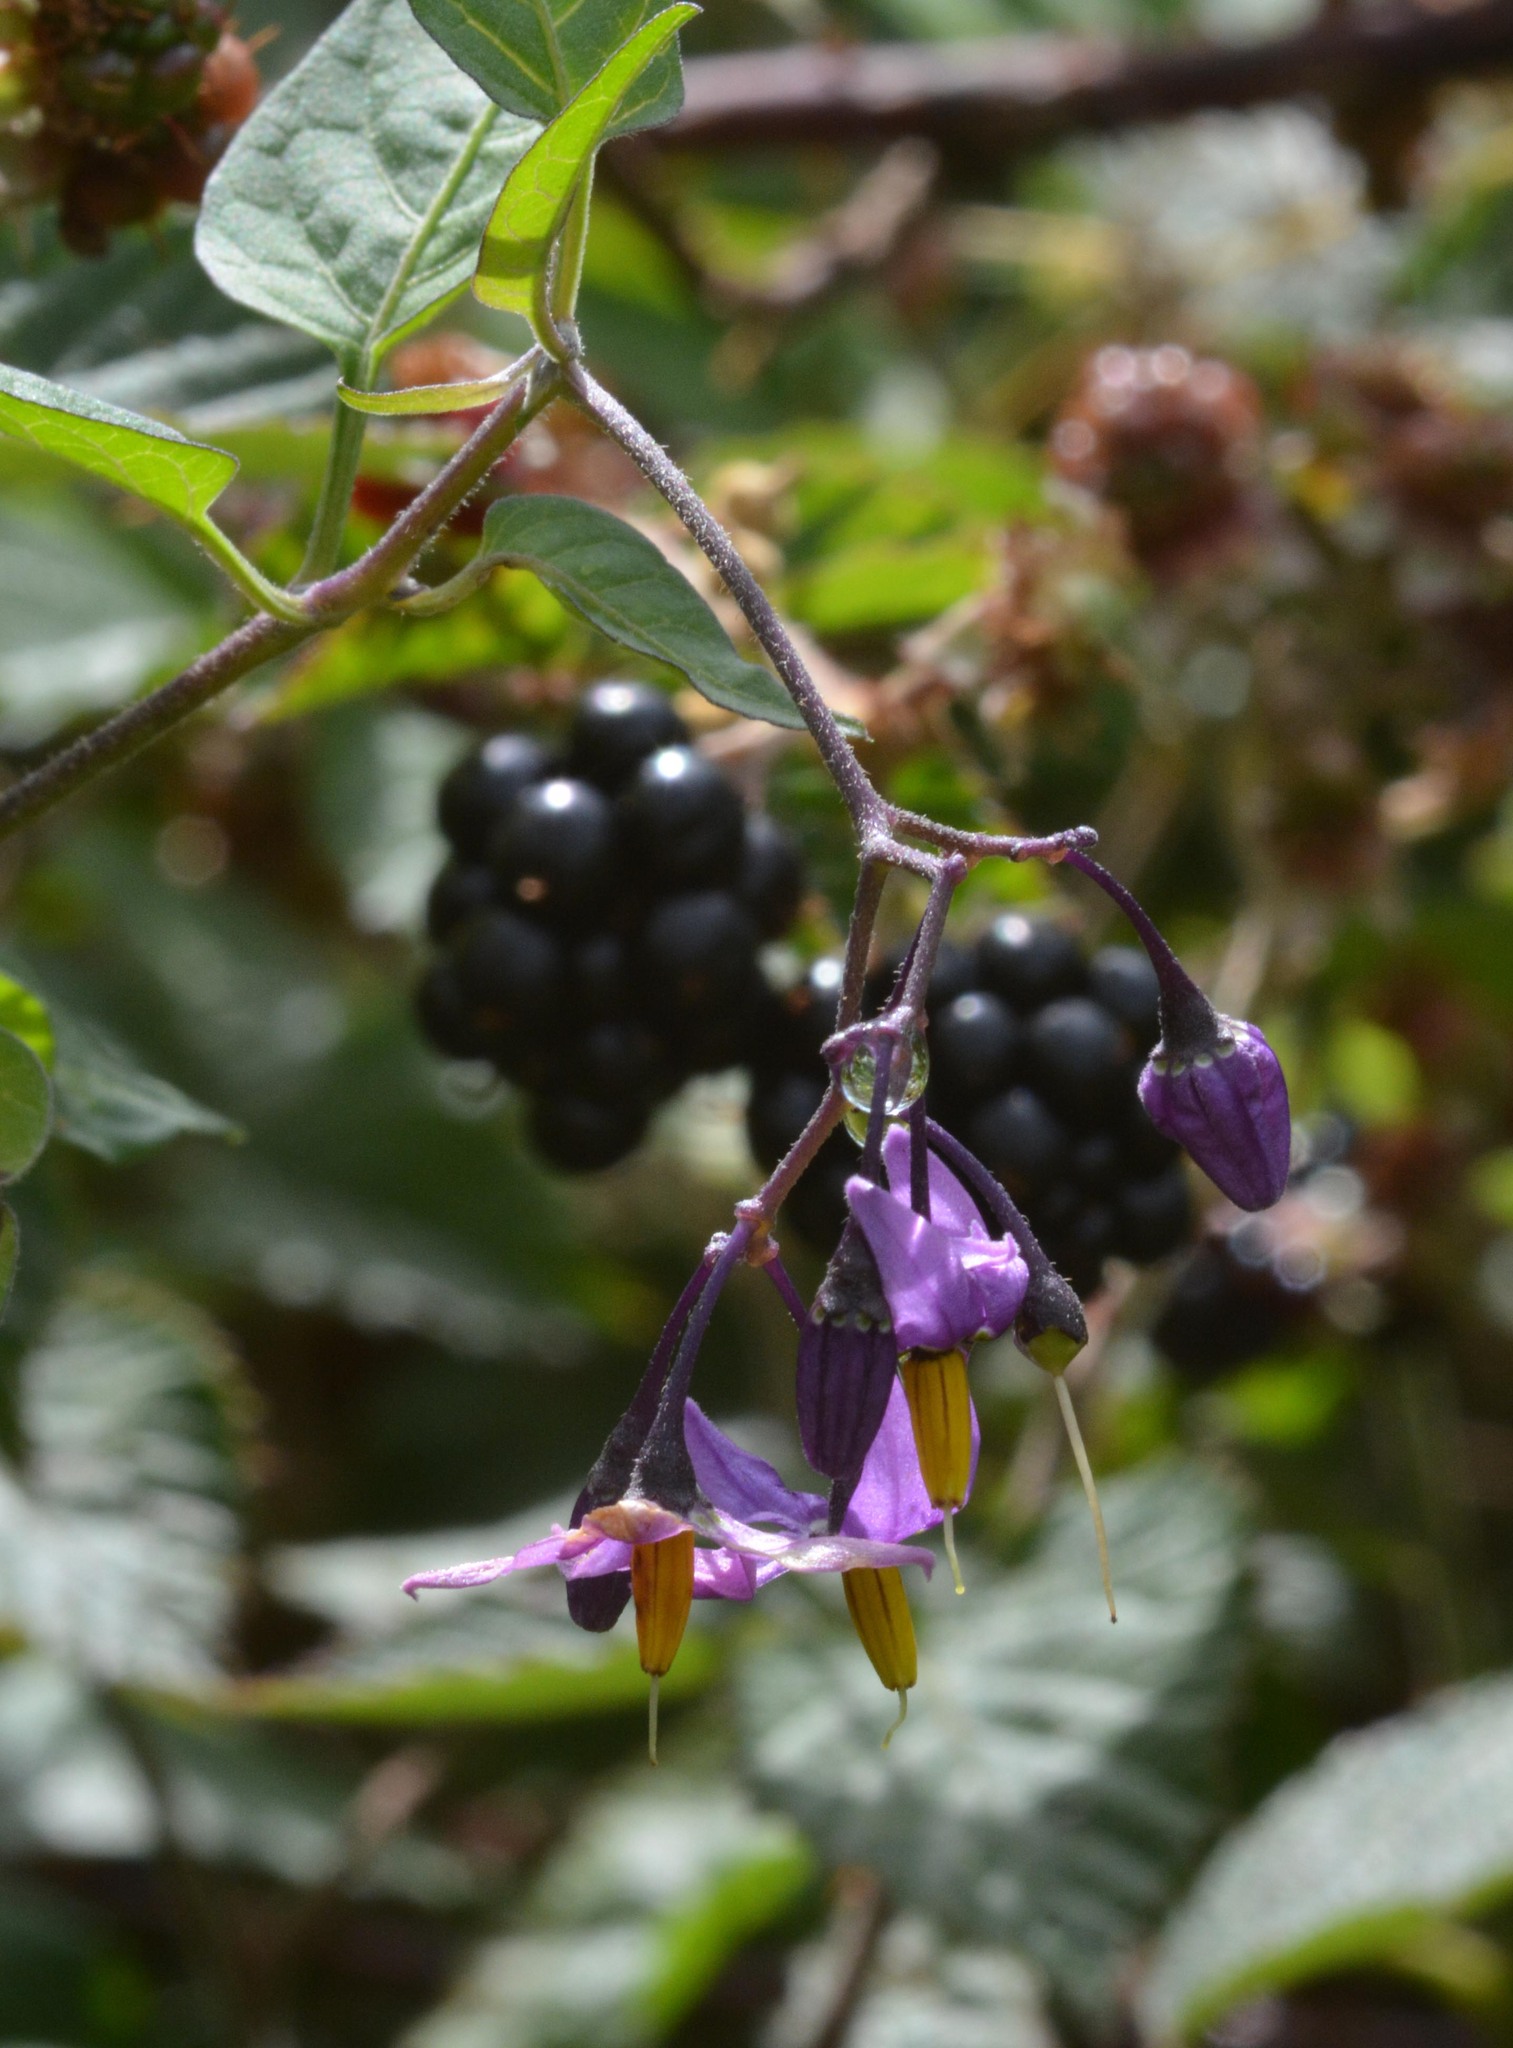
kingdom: Plantae
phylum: Tracheophyta
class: Magnoliopsida
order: Solanales
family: Solanaceae
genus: Solanum
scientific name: Solanum dulcamara
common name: Climbing nightshade
